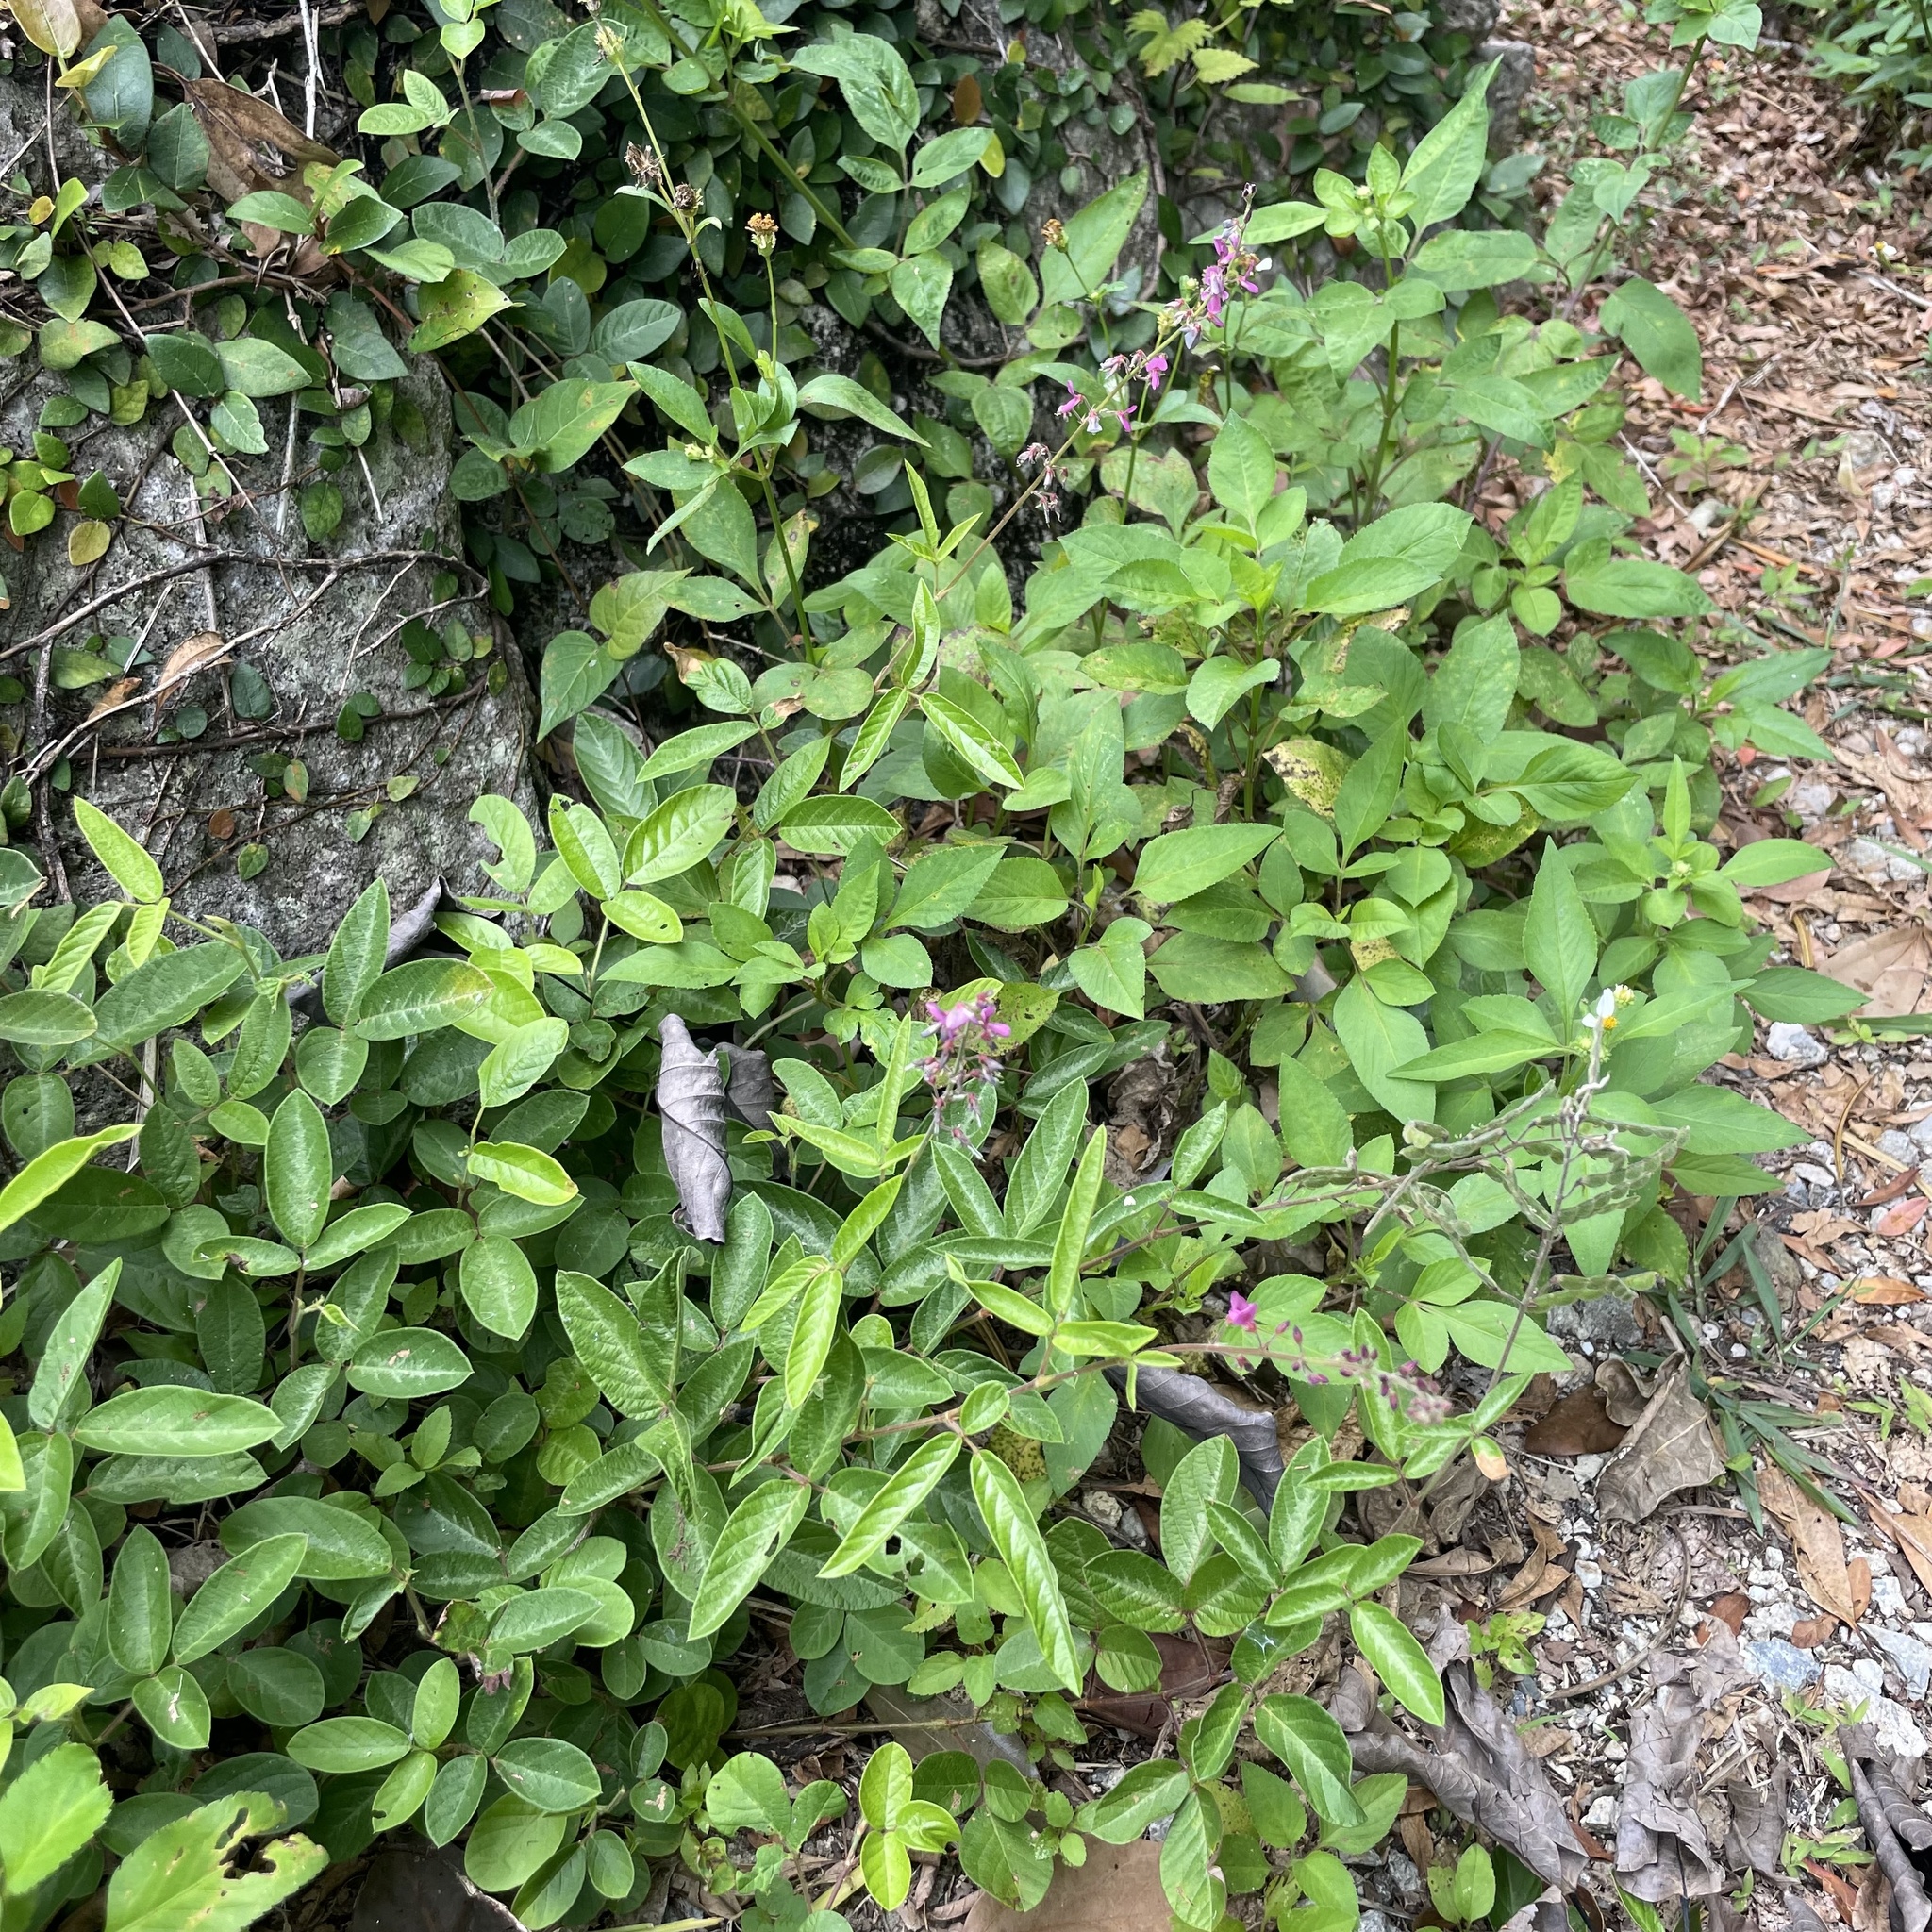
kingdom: Plantae
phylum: Tracheophyta
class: Magnoliopsida
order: Fabales
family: Fabaceae
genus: Desmodium
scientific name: Desmodium incanum
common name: Tickclover
